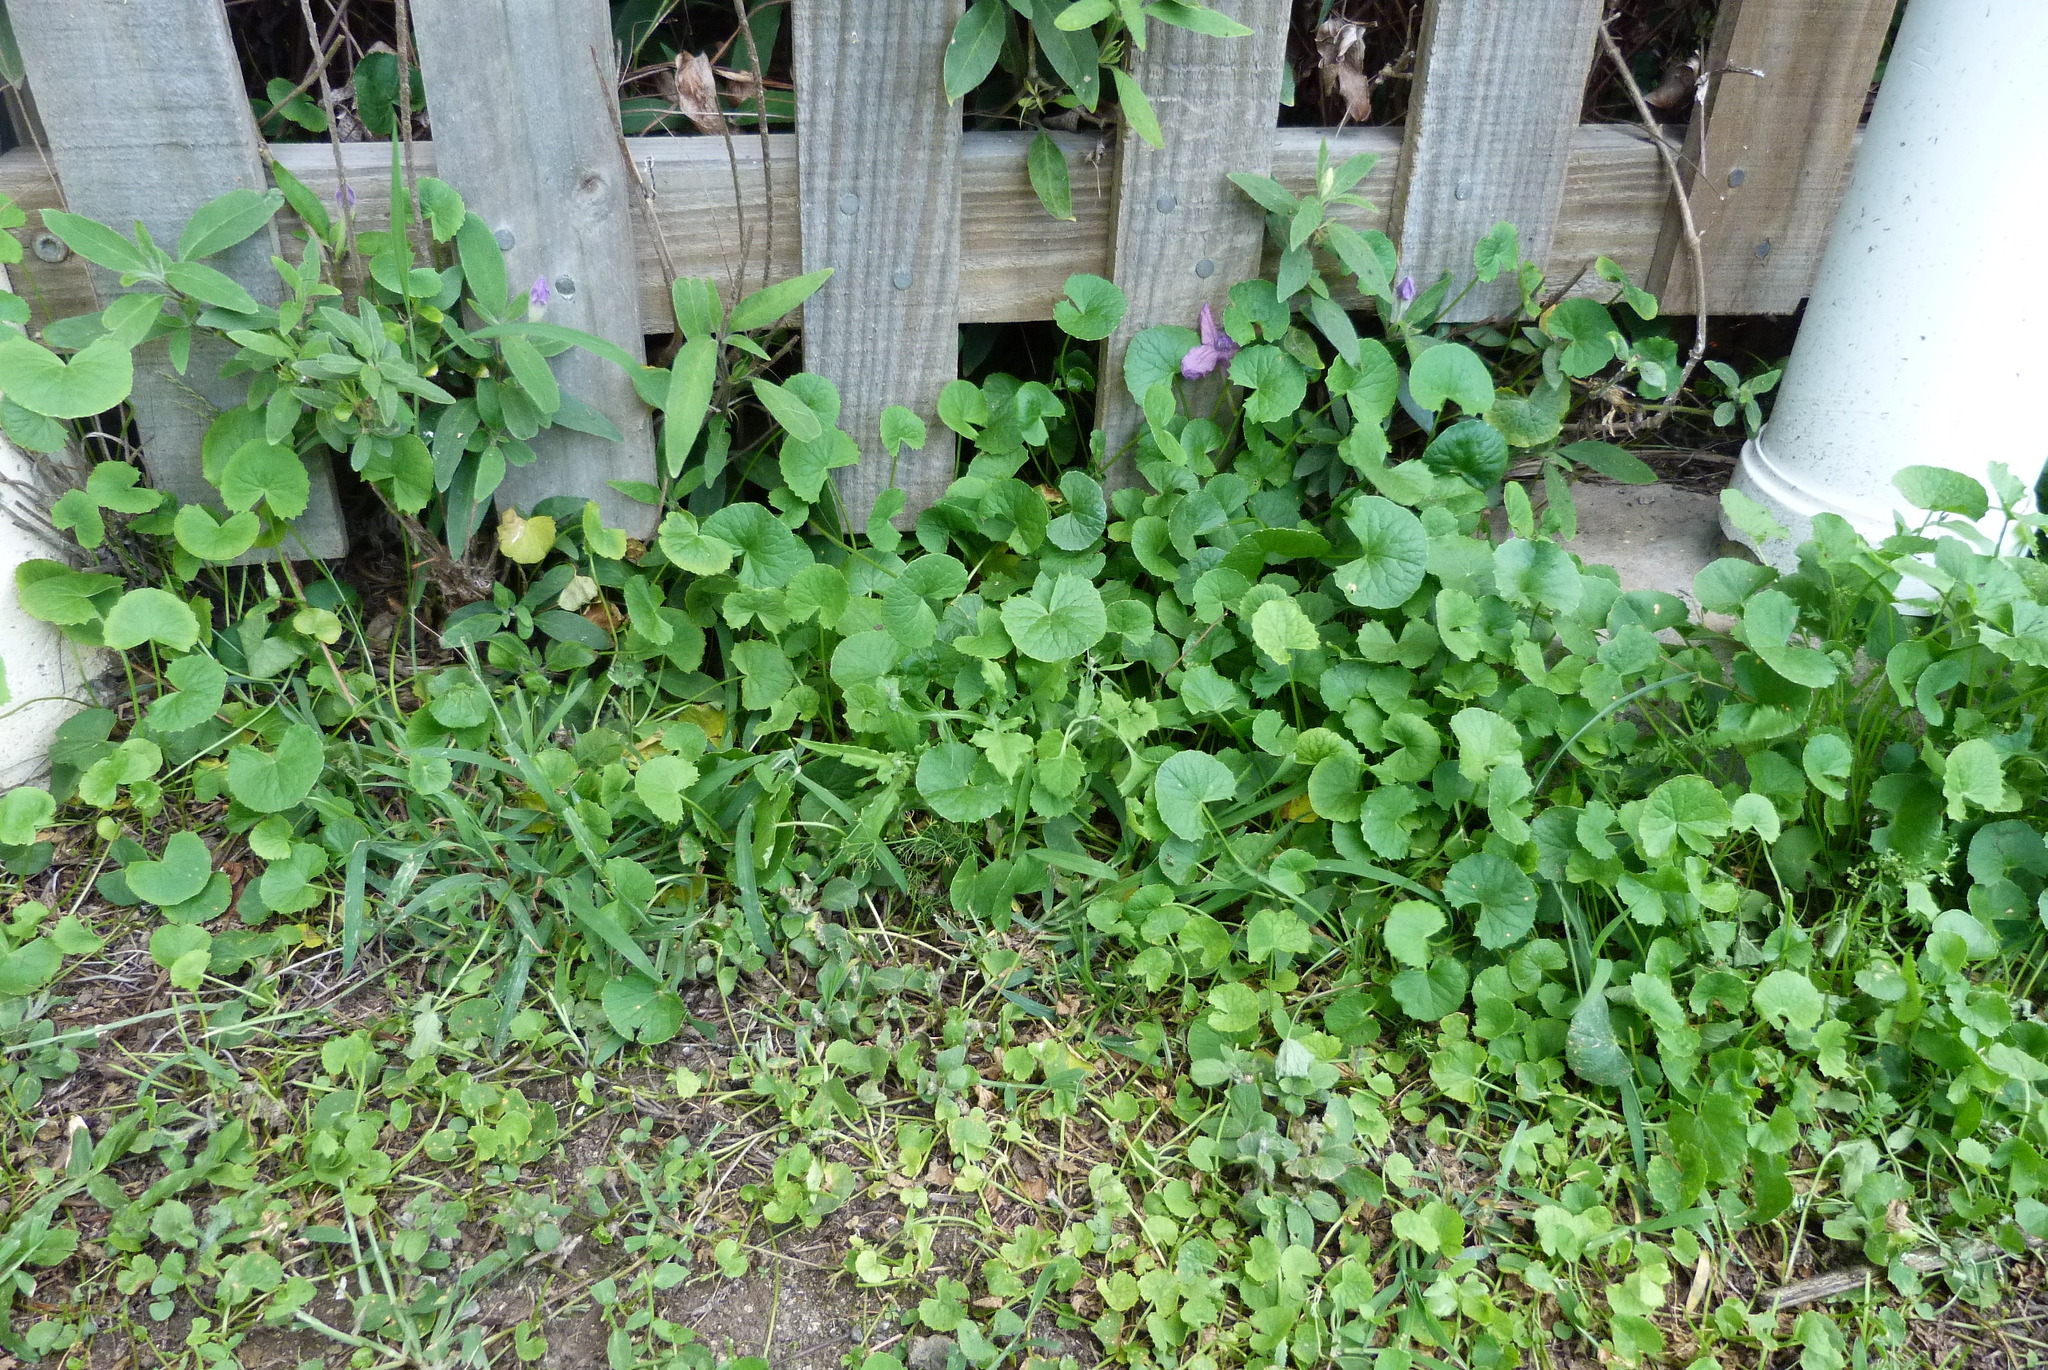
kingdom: Plantae
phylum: Tracheophyta
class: Magnoliopsida
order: Apiales
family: Apiaceae
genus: Centella
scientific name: Centella asiatica
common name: Spadeleaf
